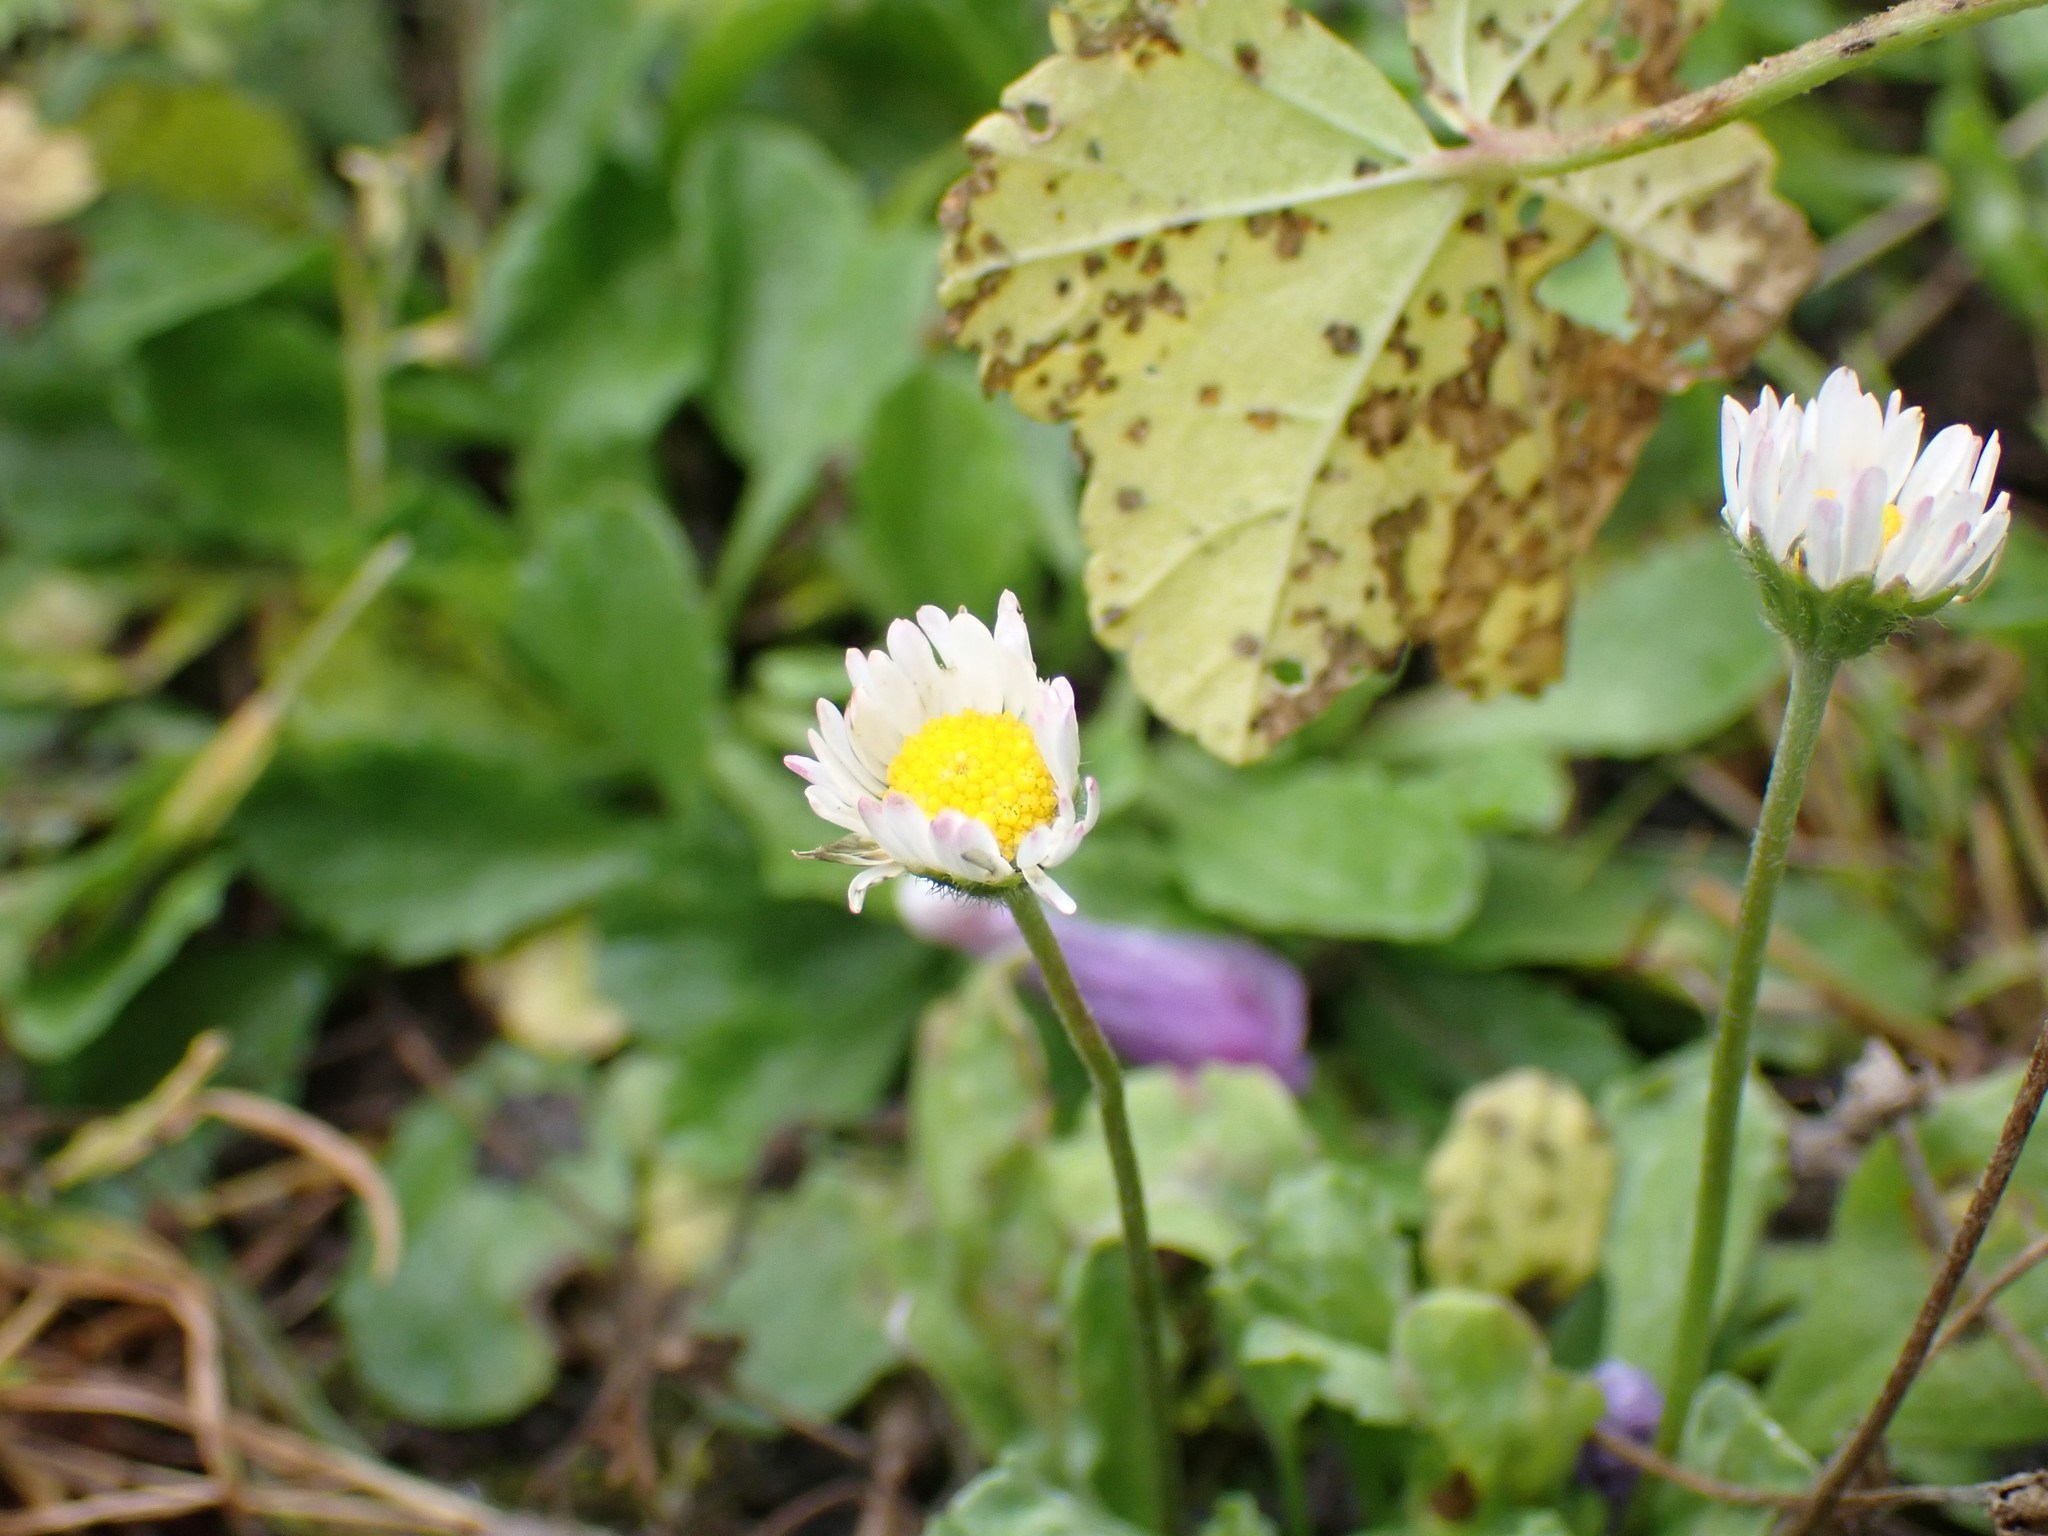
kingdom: Plantae
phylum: Tracheophyta
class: Magnoliopsida
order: Asterales
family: Asteraceae
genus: Bellis
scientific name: Bellis perennis
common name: Lawndaisy
